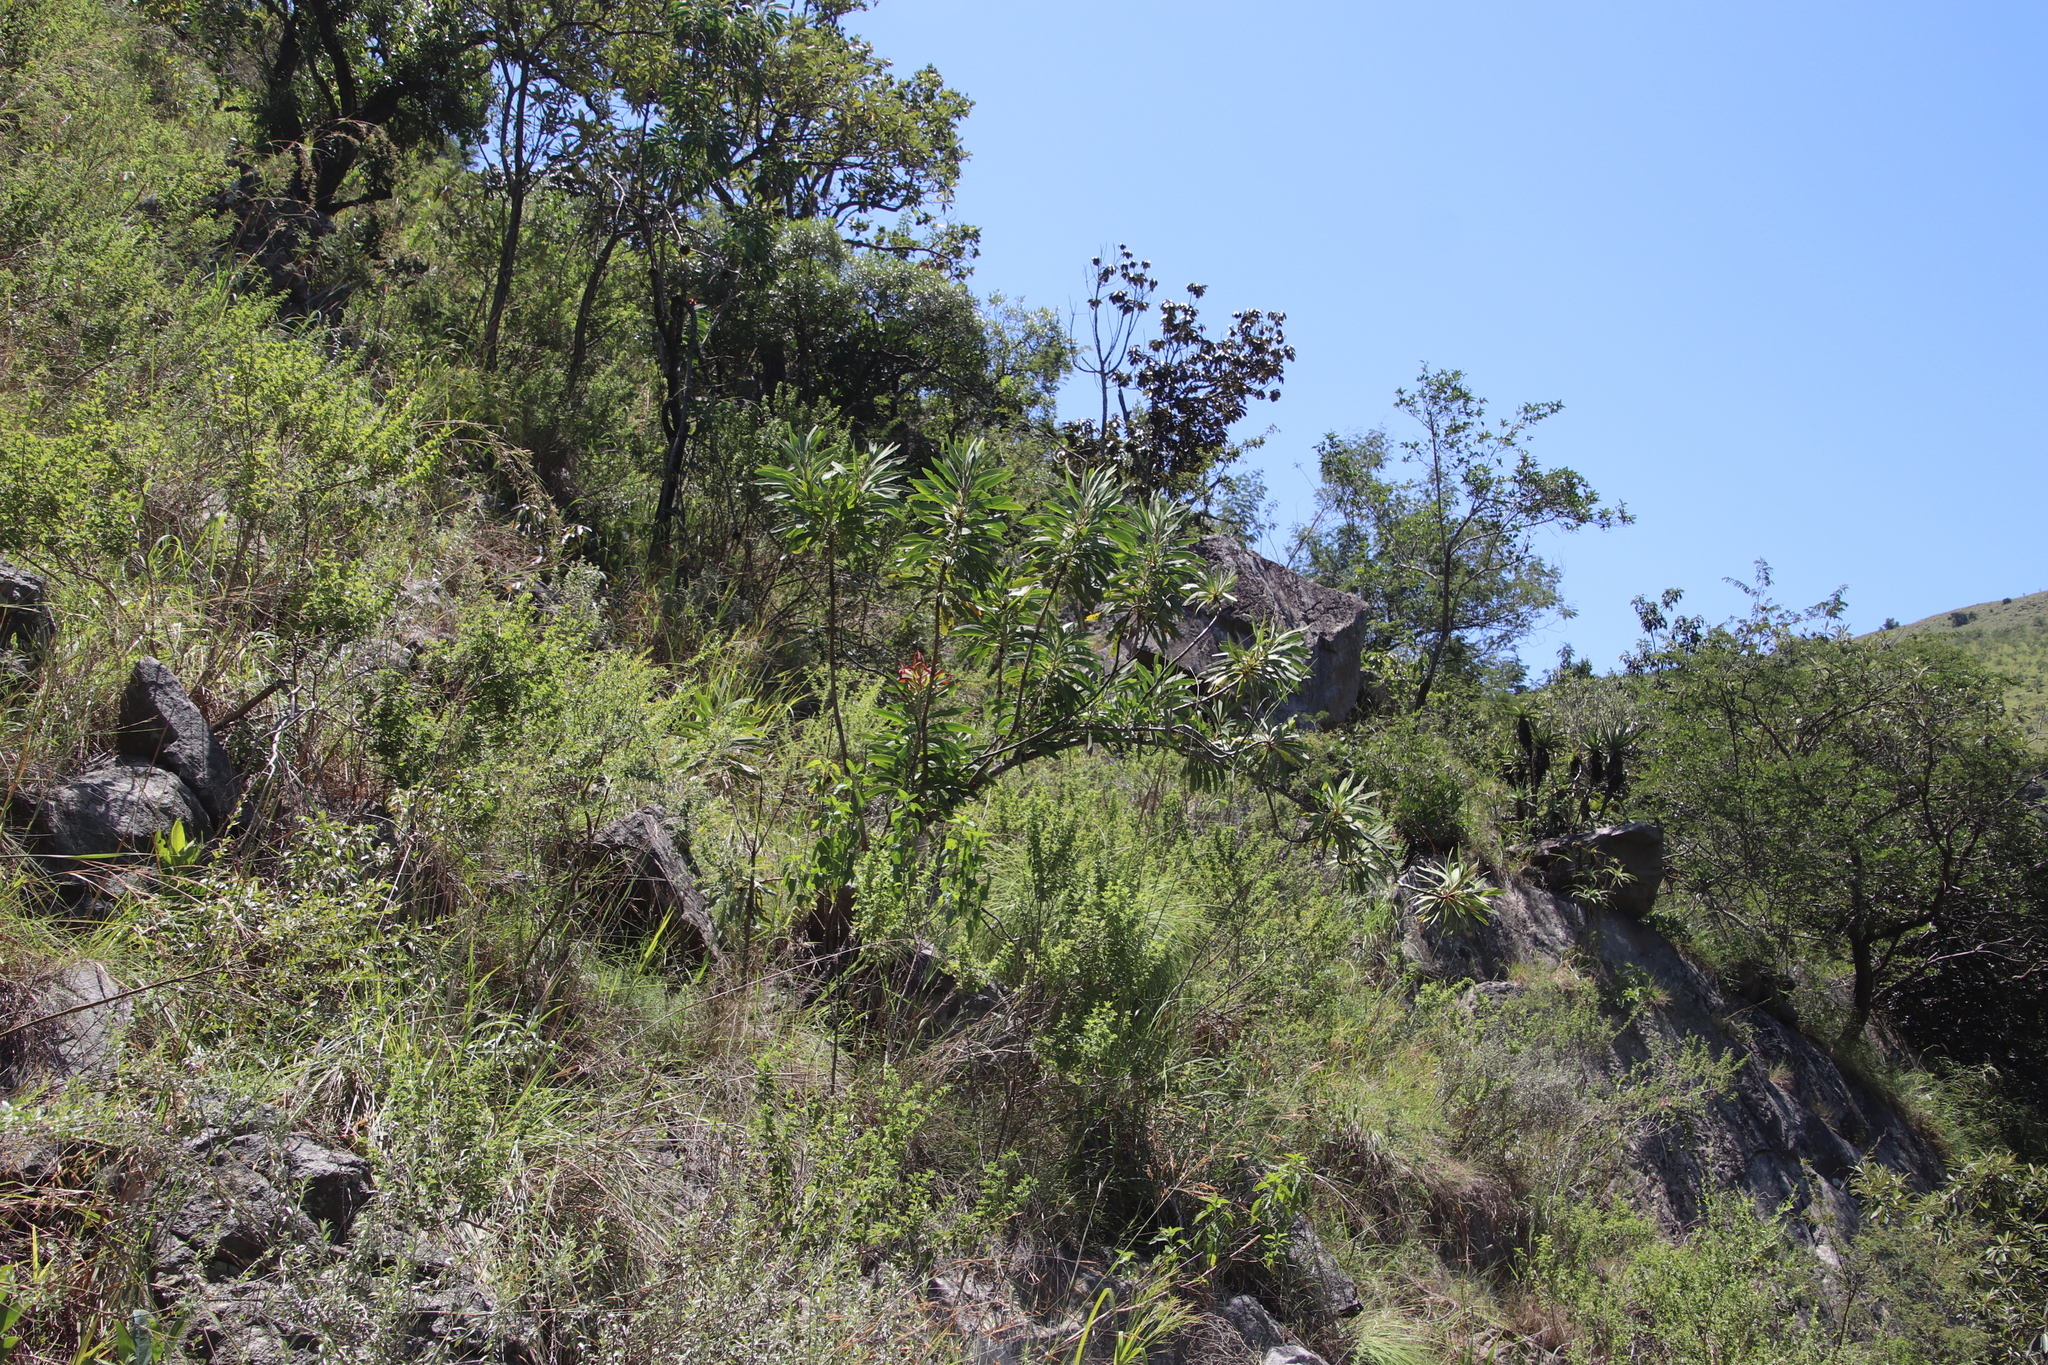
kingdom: Plantae
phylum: Tracheophyta
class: Magnoliopsida
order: Proteales
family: Proteaceae
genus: Protea
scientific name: Protea caffra
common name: Common sugarbush
